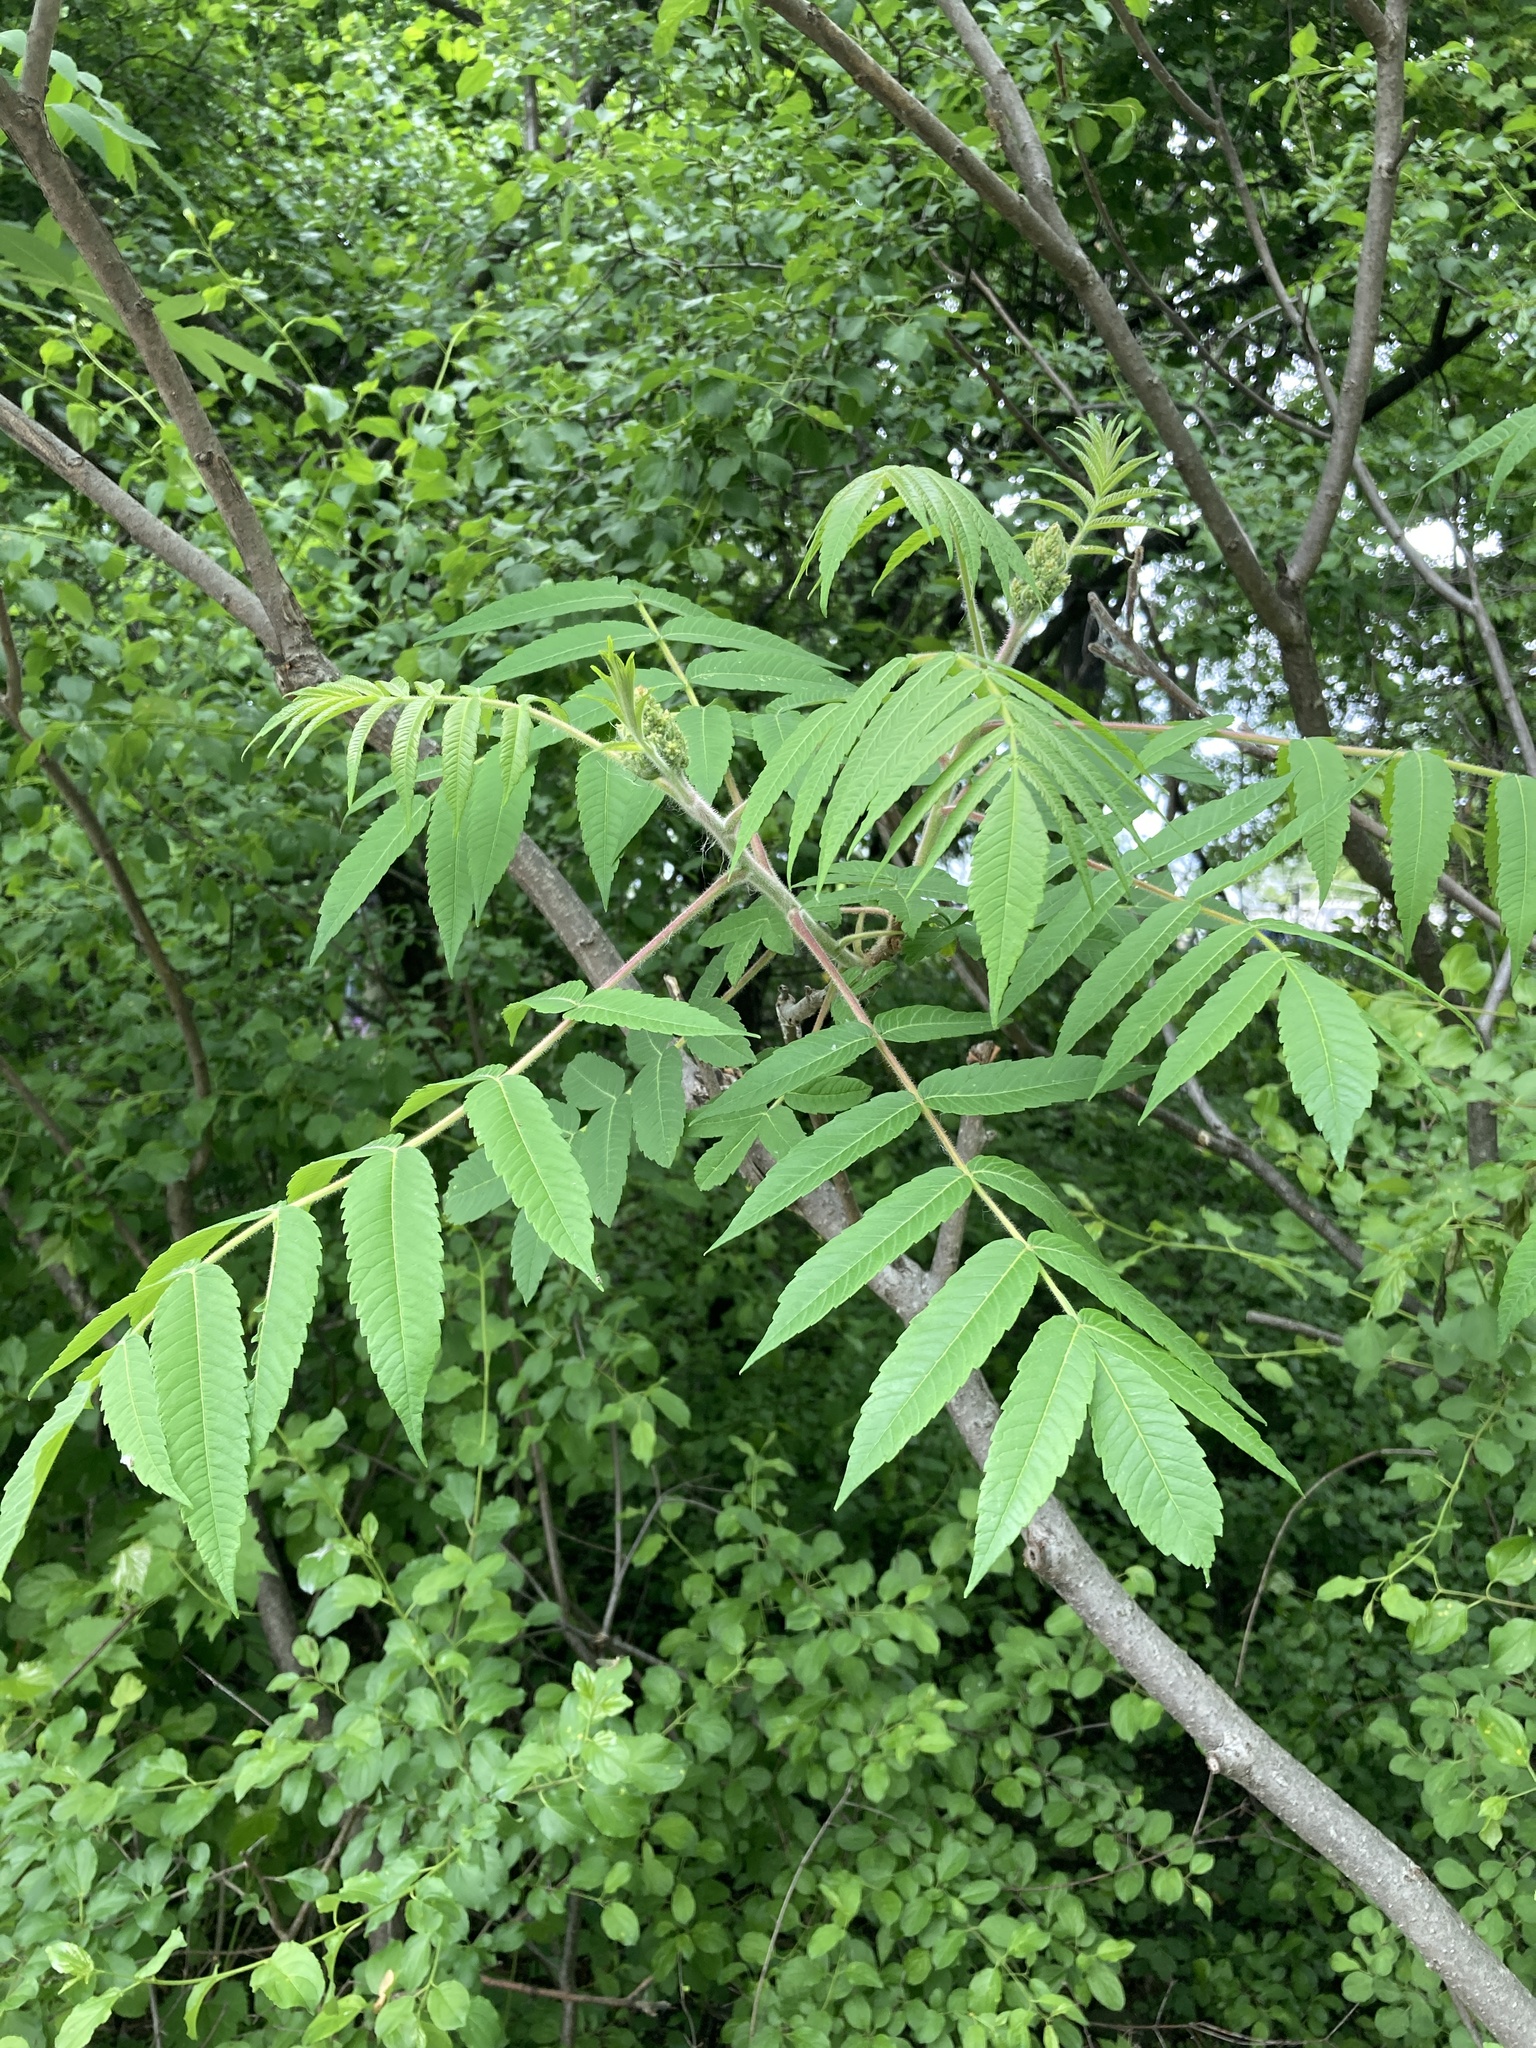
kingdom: Plantae
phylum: Tracheophyta
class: Magnoliopsida
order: Sapindales
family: Anacardiaceae
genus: Rhus
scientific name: Rhus typhina
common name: Staghorn sumac
